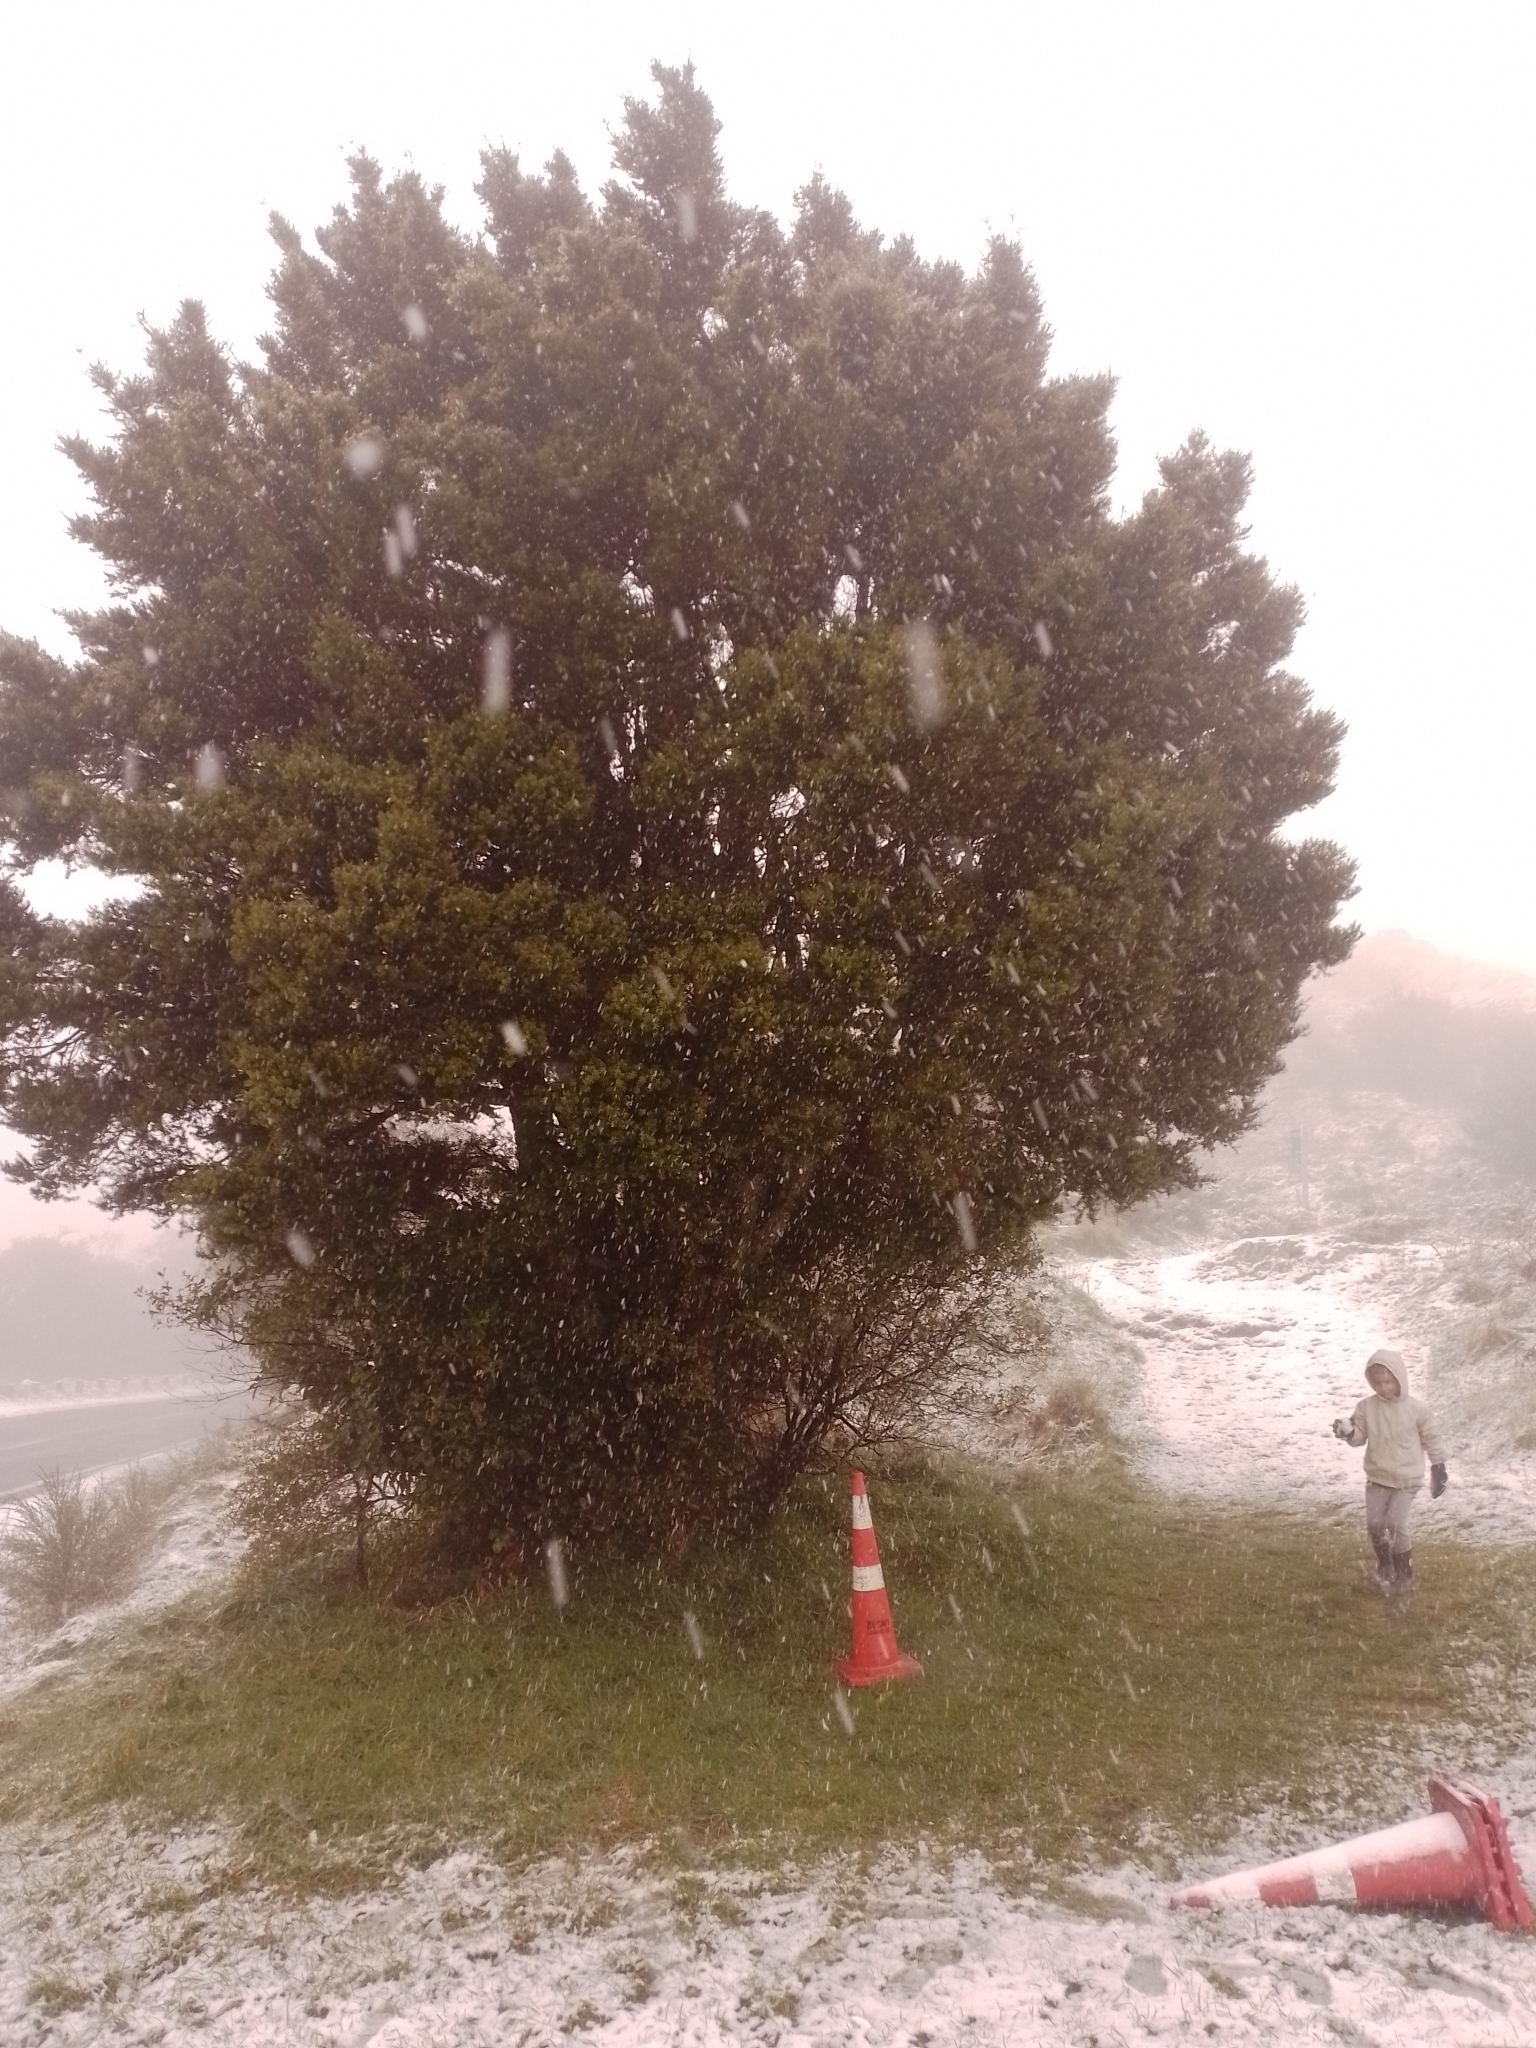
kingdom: Plantae
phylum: Tracheophyta
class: Pinopsida
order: Pinales
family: Podocarpaceae
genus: Podocarpus
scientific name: Podocarpus totara
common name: Totara
